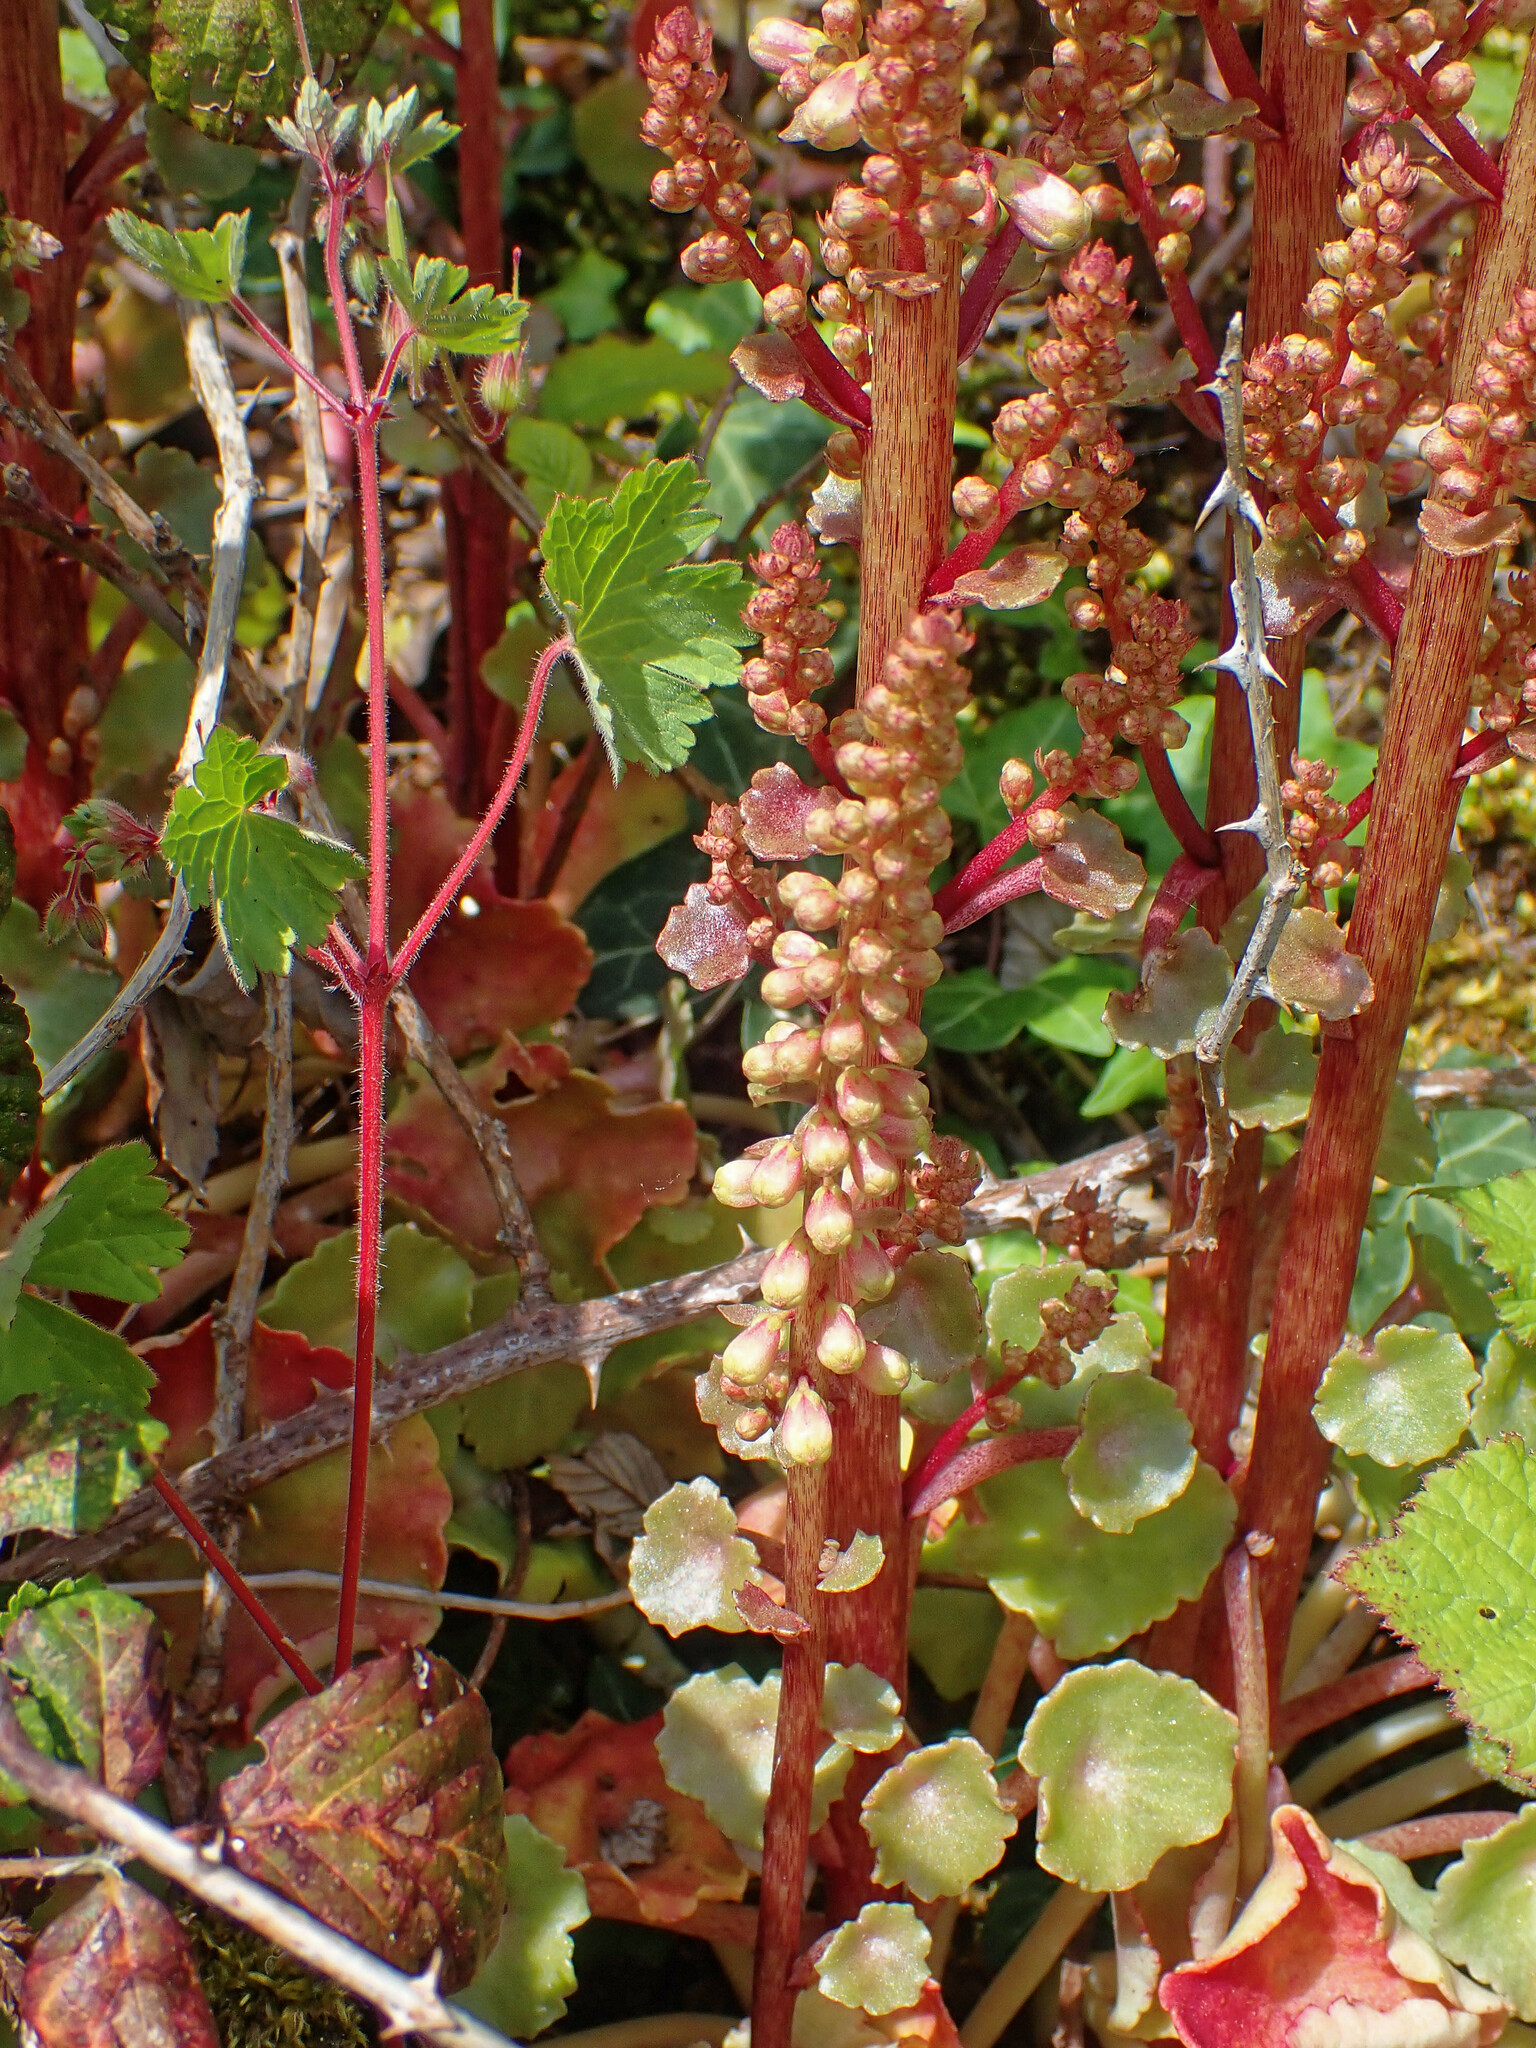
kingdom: Plantae
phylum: Tracheophyta
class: Magnoliopsida
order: Saxifragales
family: Crassulaceae
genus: Umbilicus
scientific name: Umbilicus rupestris
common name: Navelwort
